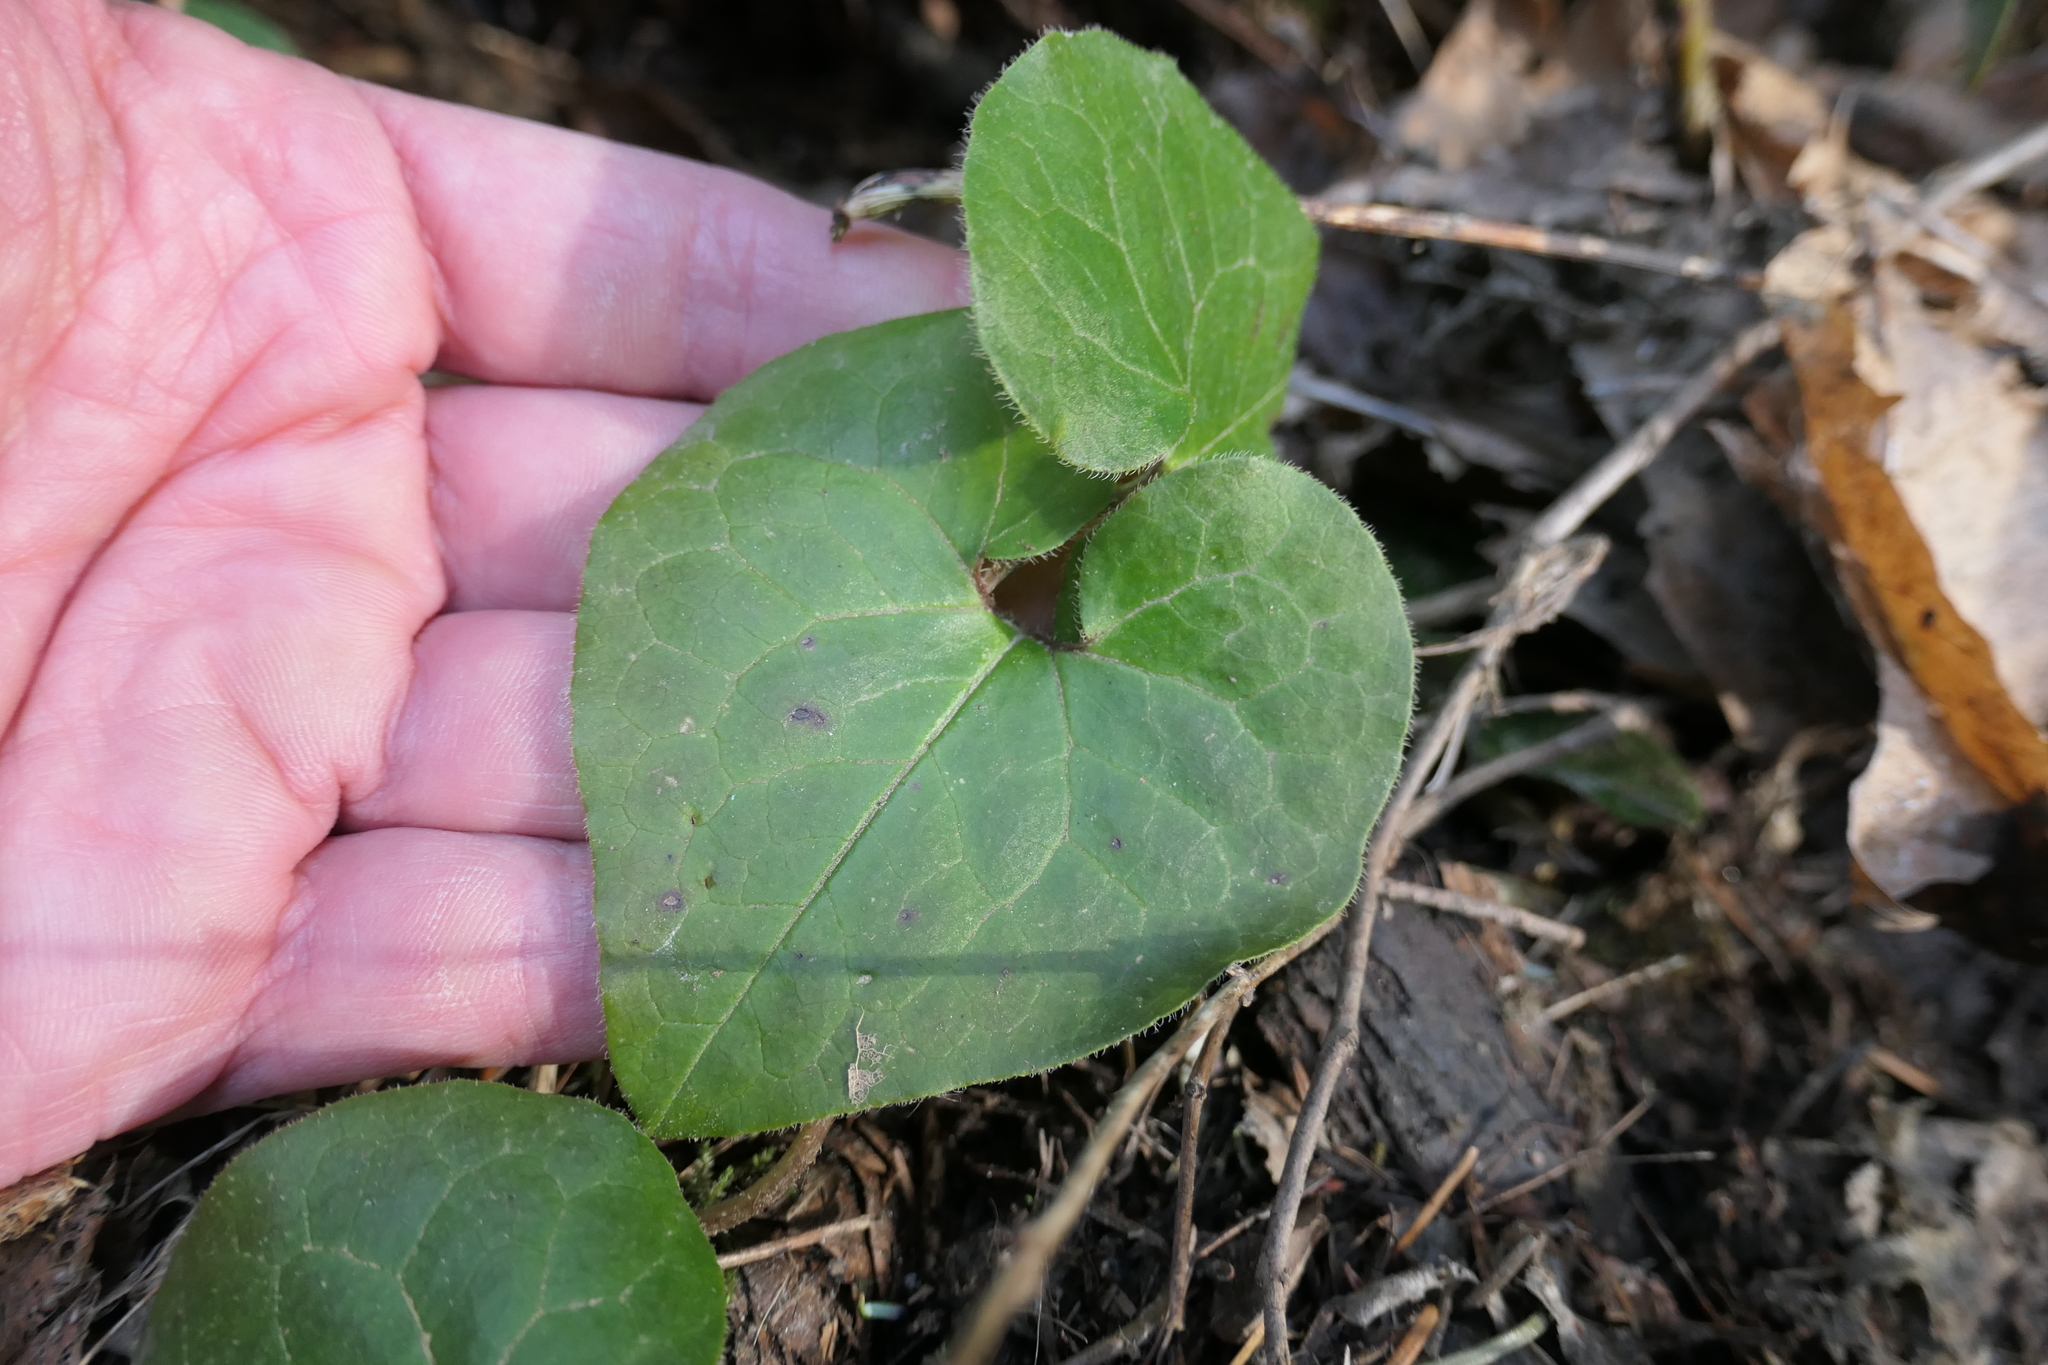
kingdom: Plantae
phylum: Tracheophyta
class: Magnoliopsida
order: Piperales
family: Aristolochiaceae
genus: Asarum
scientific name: Asarum caudatum
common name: Wild ginger
